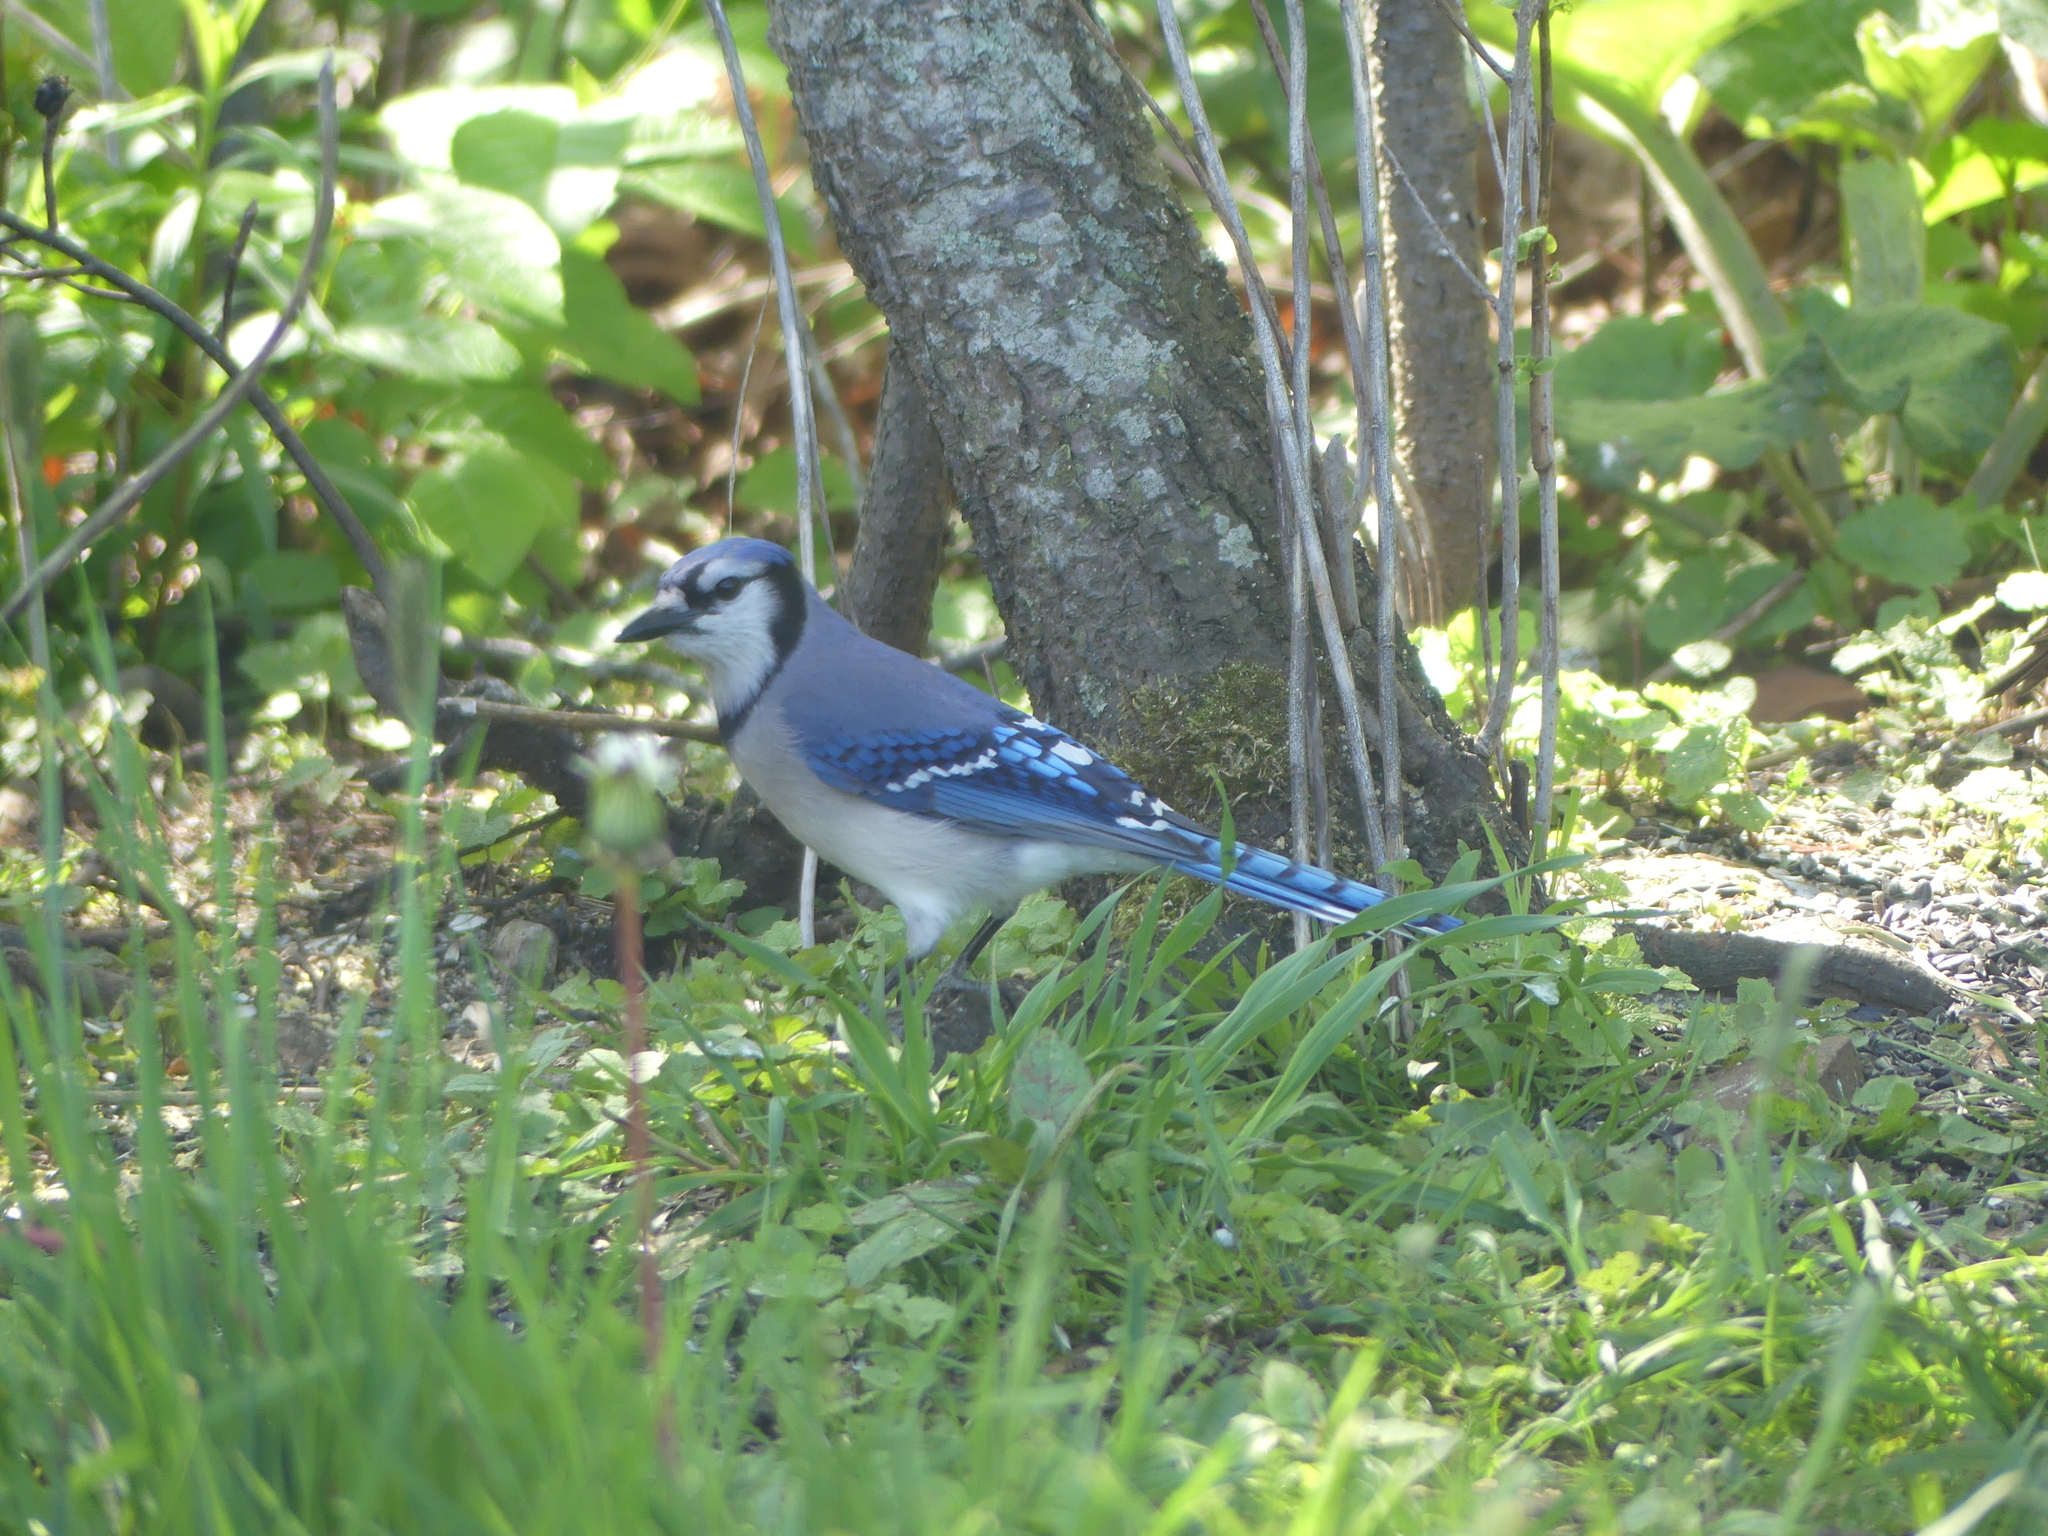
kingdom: Animalia
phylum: Chordata
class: Aves
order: Passeriformes
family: Corvidae
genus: Cyanocitta
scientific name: Cyanocitta cristata
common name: Blue jay
